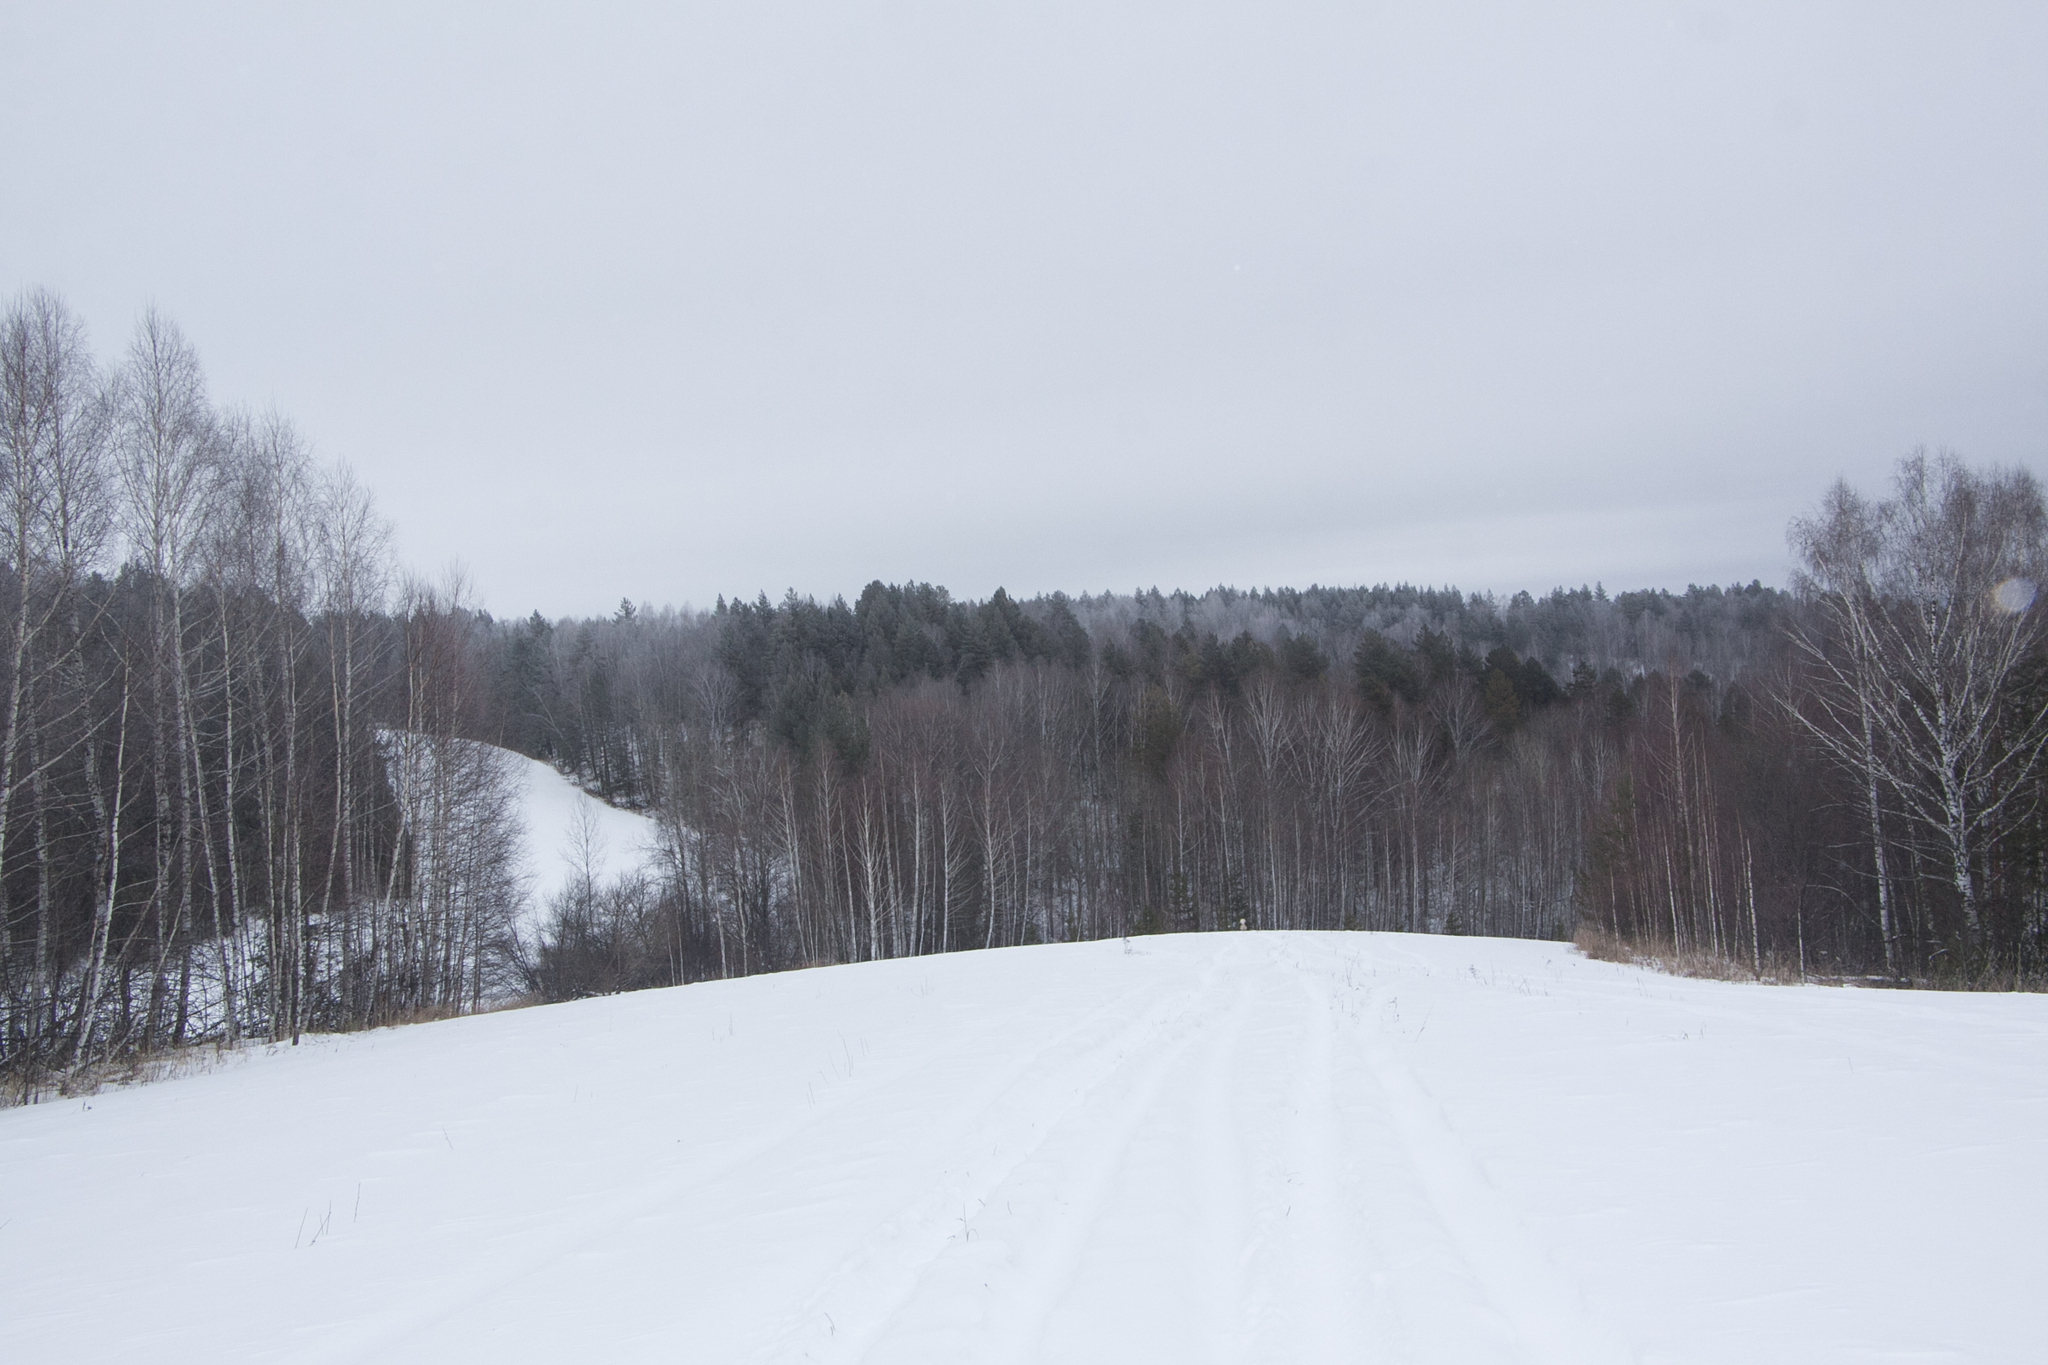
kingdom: Plantae
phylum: Tracheophyta
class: Pinopsida
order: Pinales
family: Pinaceae
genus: Pinus
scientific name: Pinus sylvestris
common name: Scots pine
